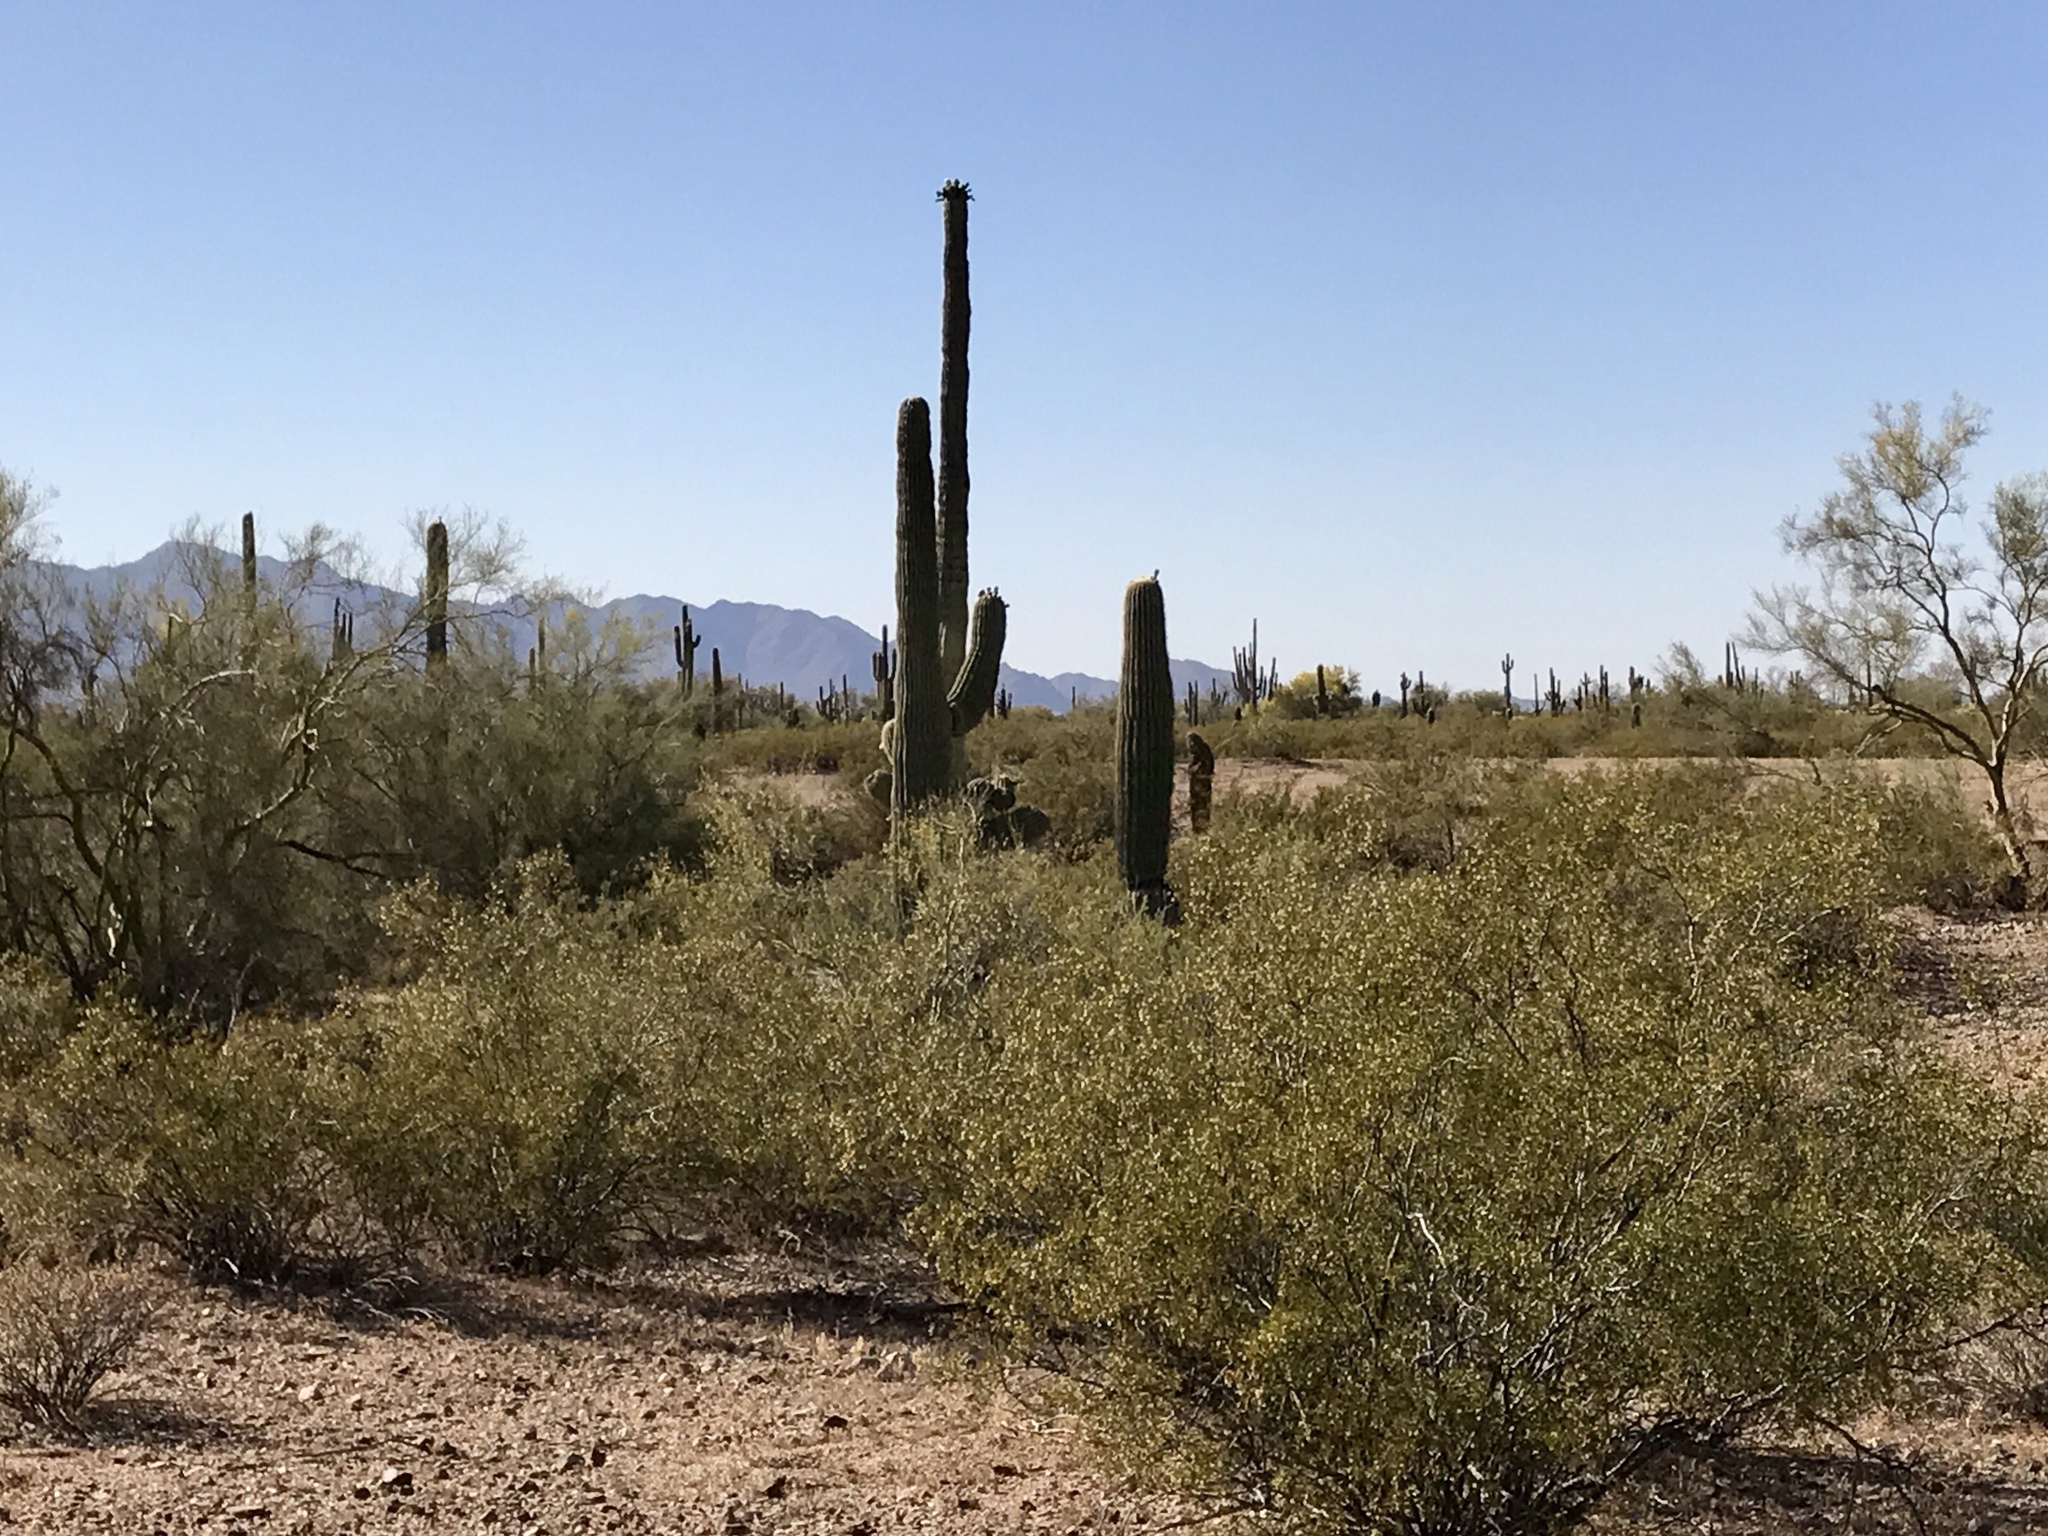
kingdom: Plantae
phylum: Tracheophyta
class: Magnoliopsida
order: Zygophyllales
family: Zygophyllaceae
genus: Larrea
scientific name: Larrea tridentata
